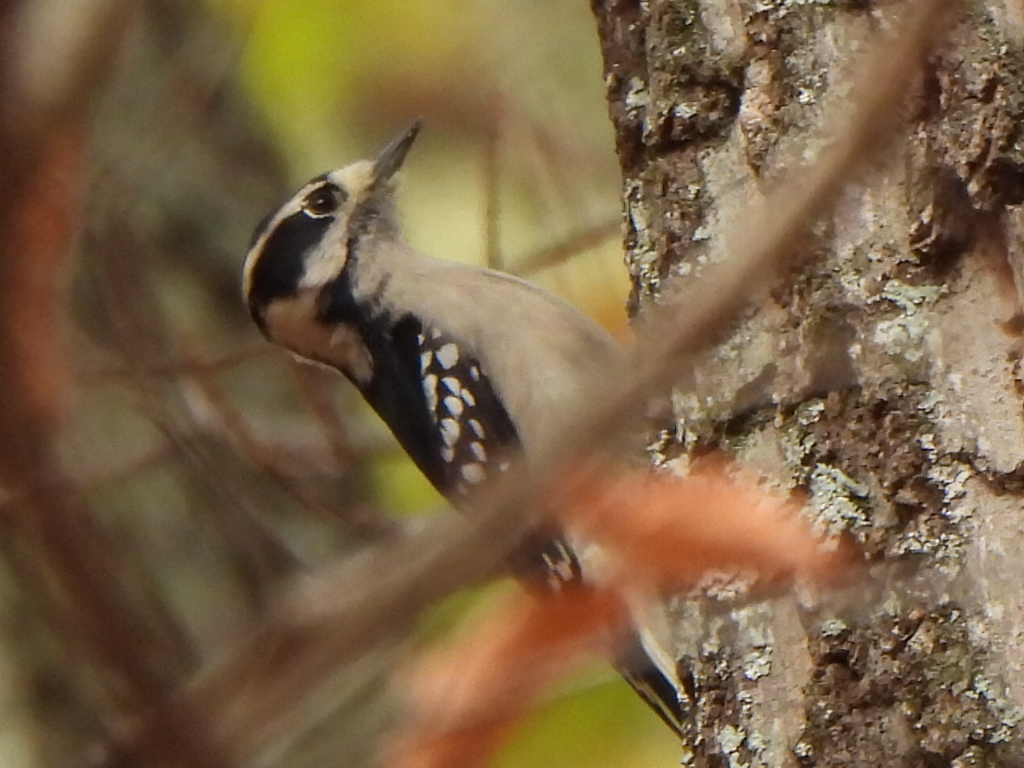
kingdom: Animalia
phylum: Chordata
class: Aves
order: Piciformes
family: Picidae
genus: Dryobates
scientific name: Dryobates pubescens
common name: Downy woodpecker
